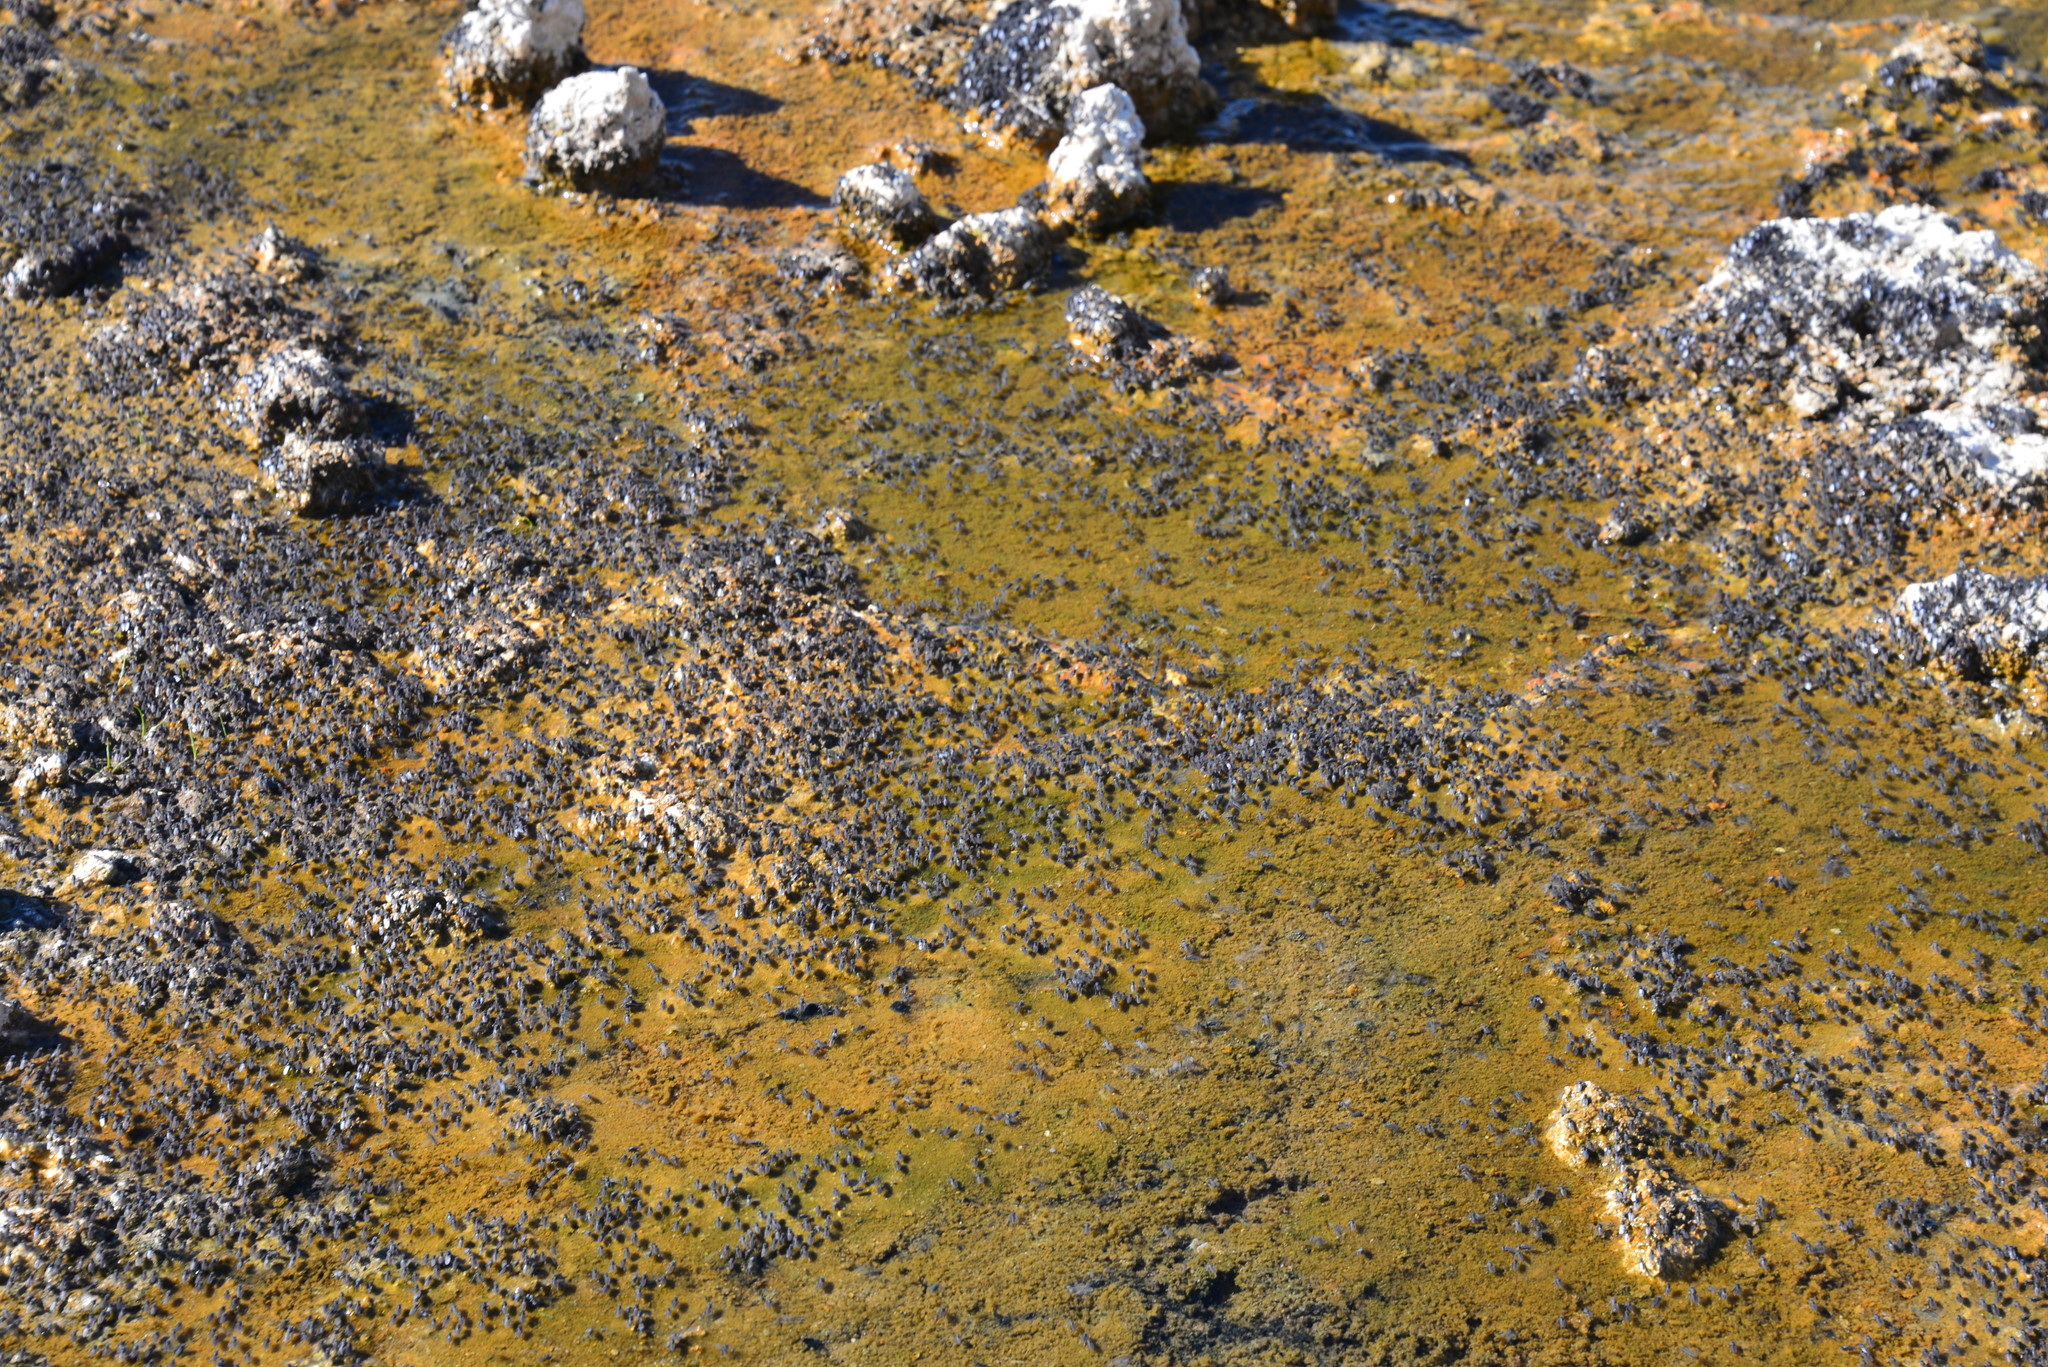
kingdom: Animalia
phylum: Arthropoda
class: Insecta
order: Diptera
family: Ephydridae
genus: Cirrula
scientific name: Cirrula hians
